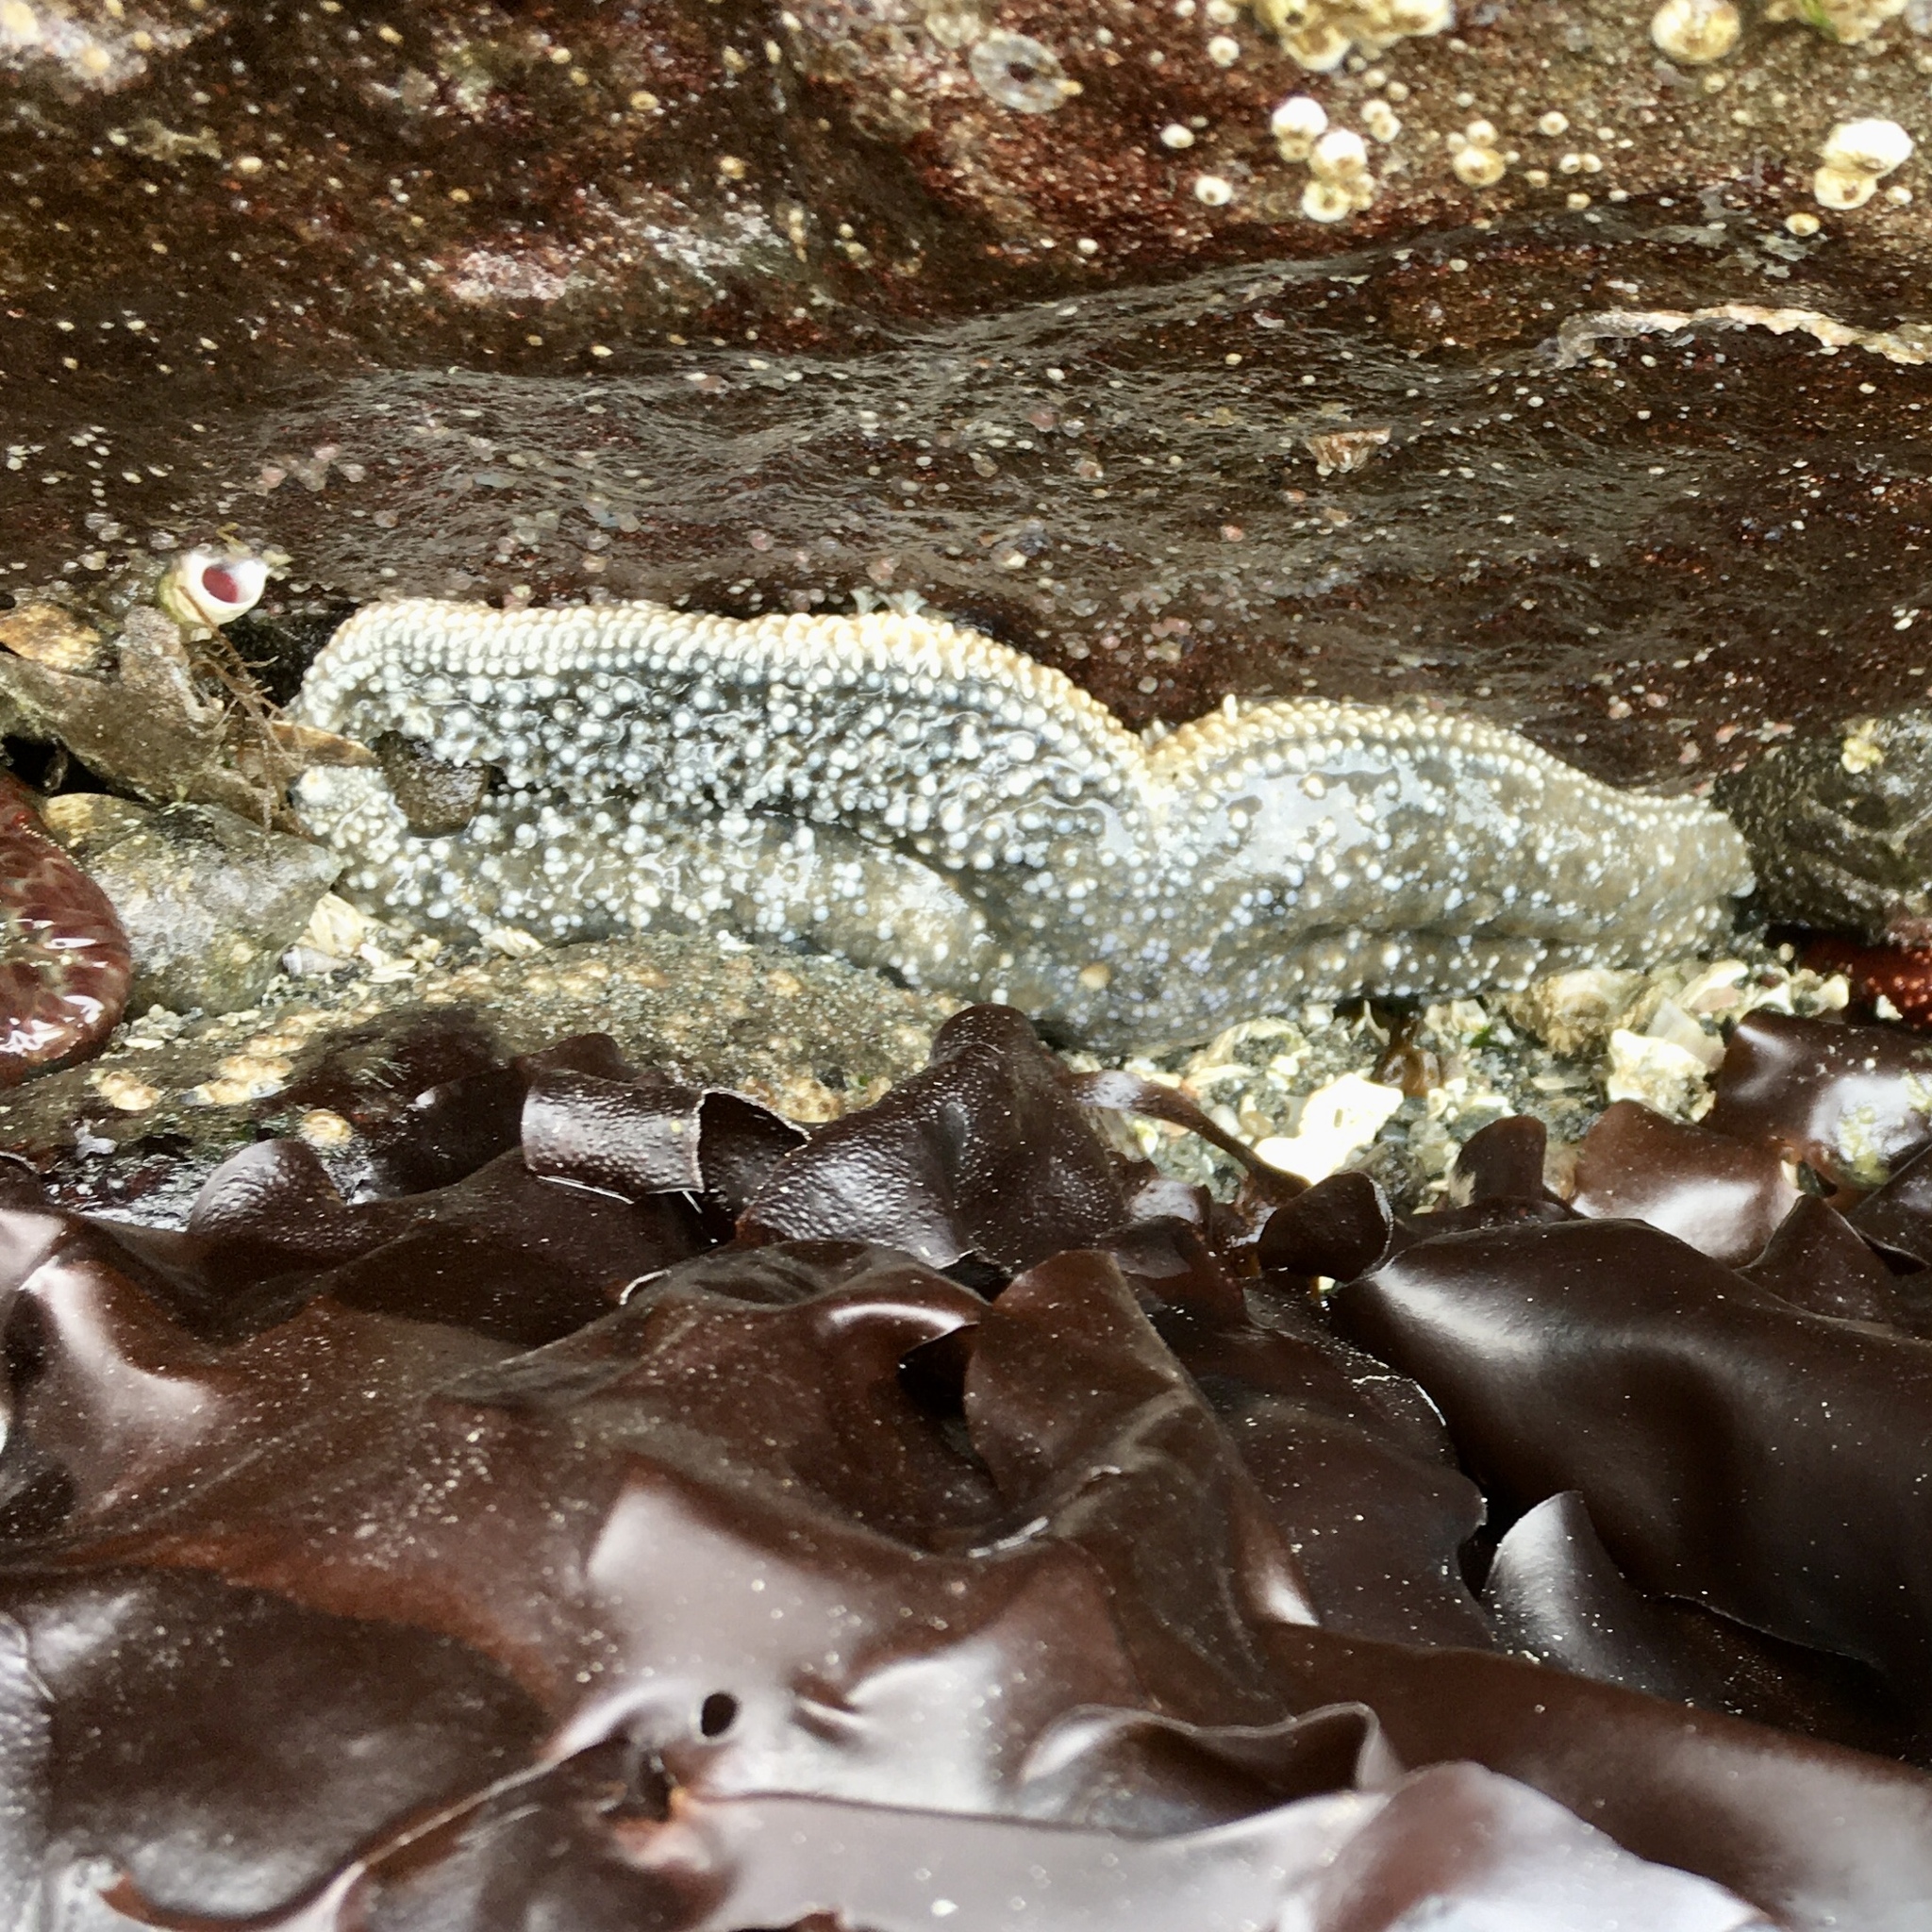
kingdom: Animalia
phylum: Echinodermata
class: Asteroidea
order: Forcipulatida
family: Asteriidae
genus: Evasterias
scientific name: Evasterias troschelii
